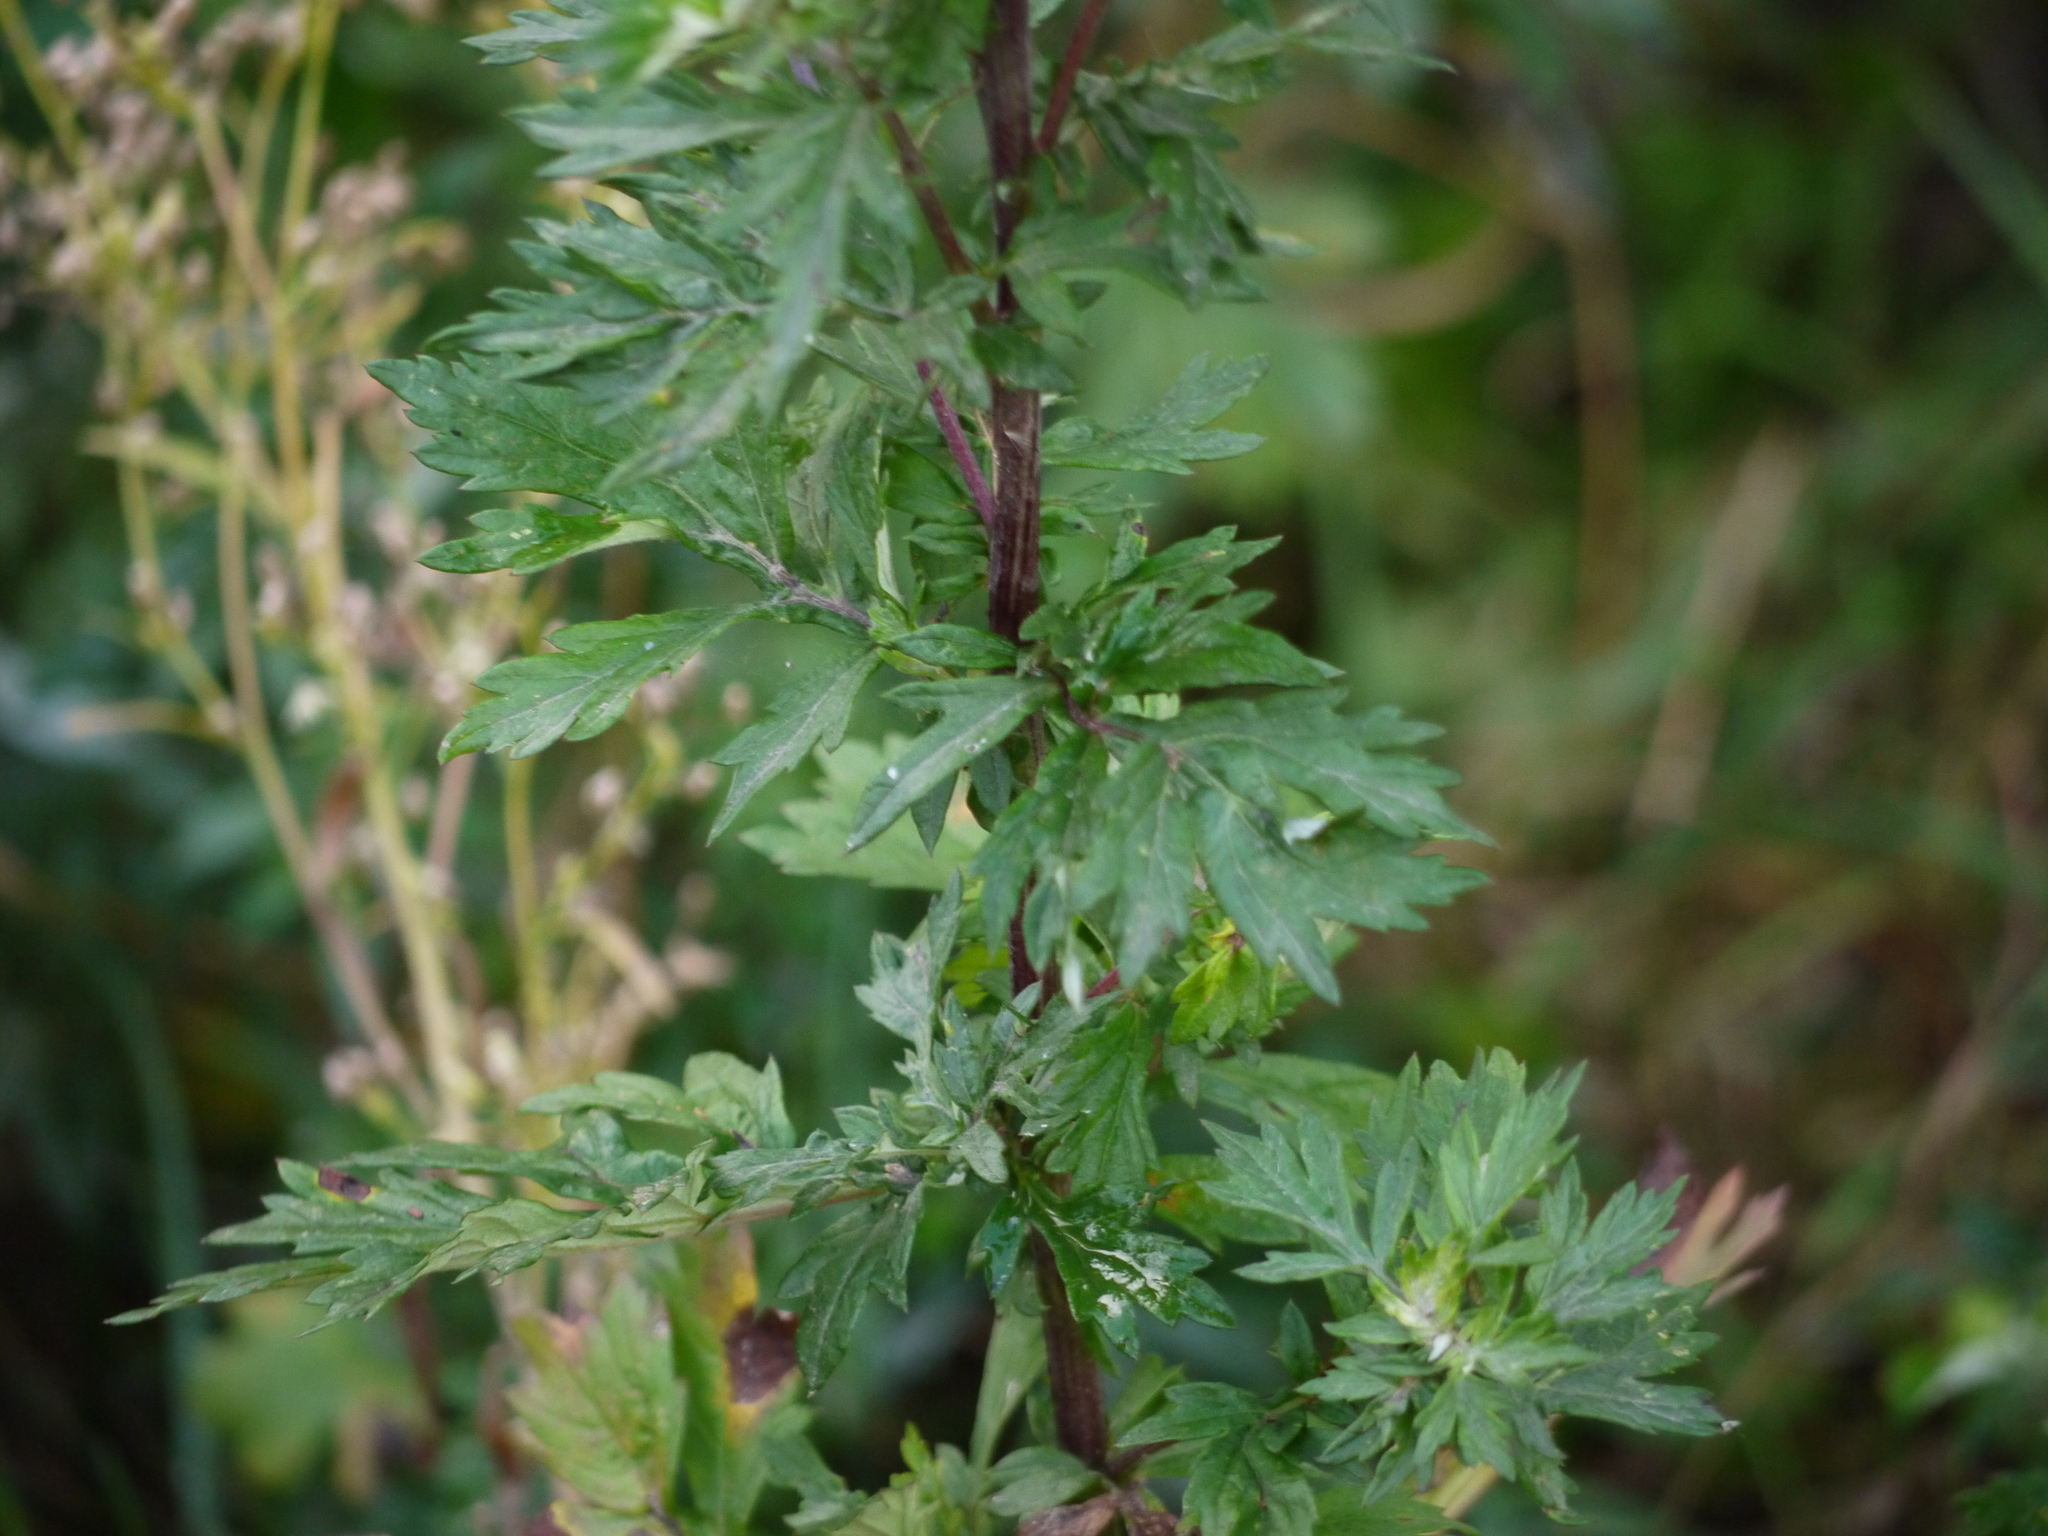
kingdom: Plantae
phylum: Tracheophyta
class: Magnoliopsida
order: Asterales
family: Asteraceae
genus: Artemisia
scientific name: Artemisia vulgaris
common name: Mugwort
